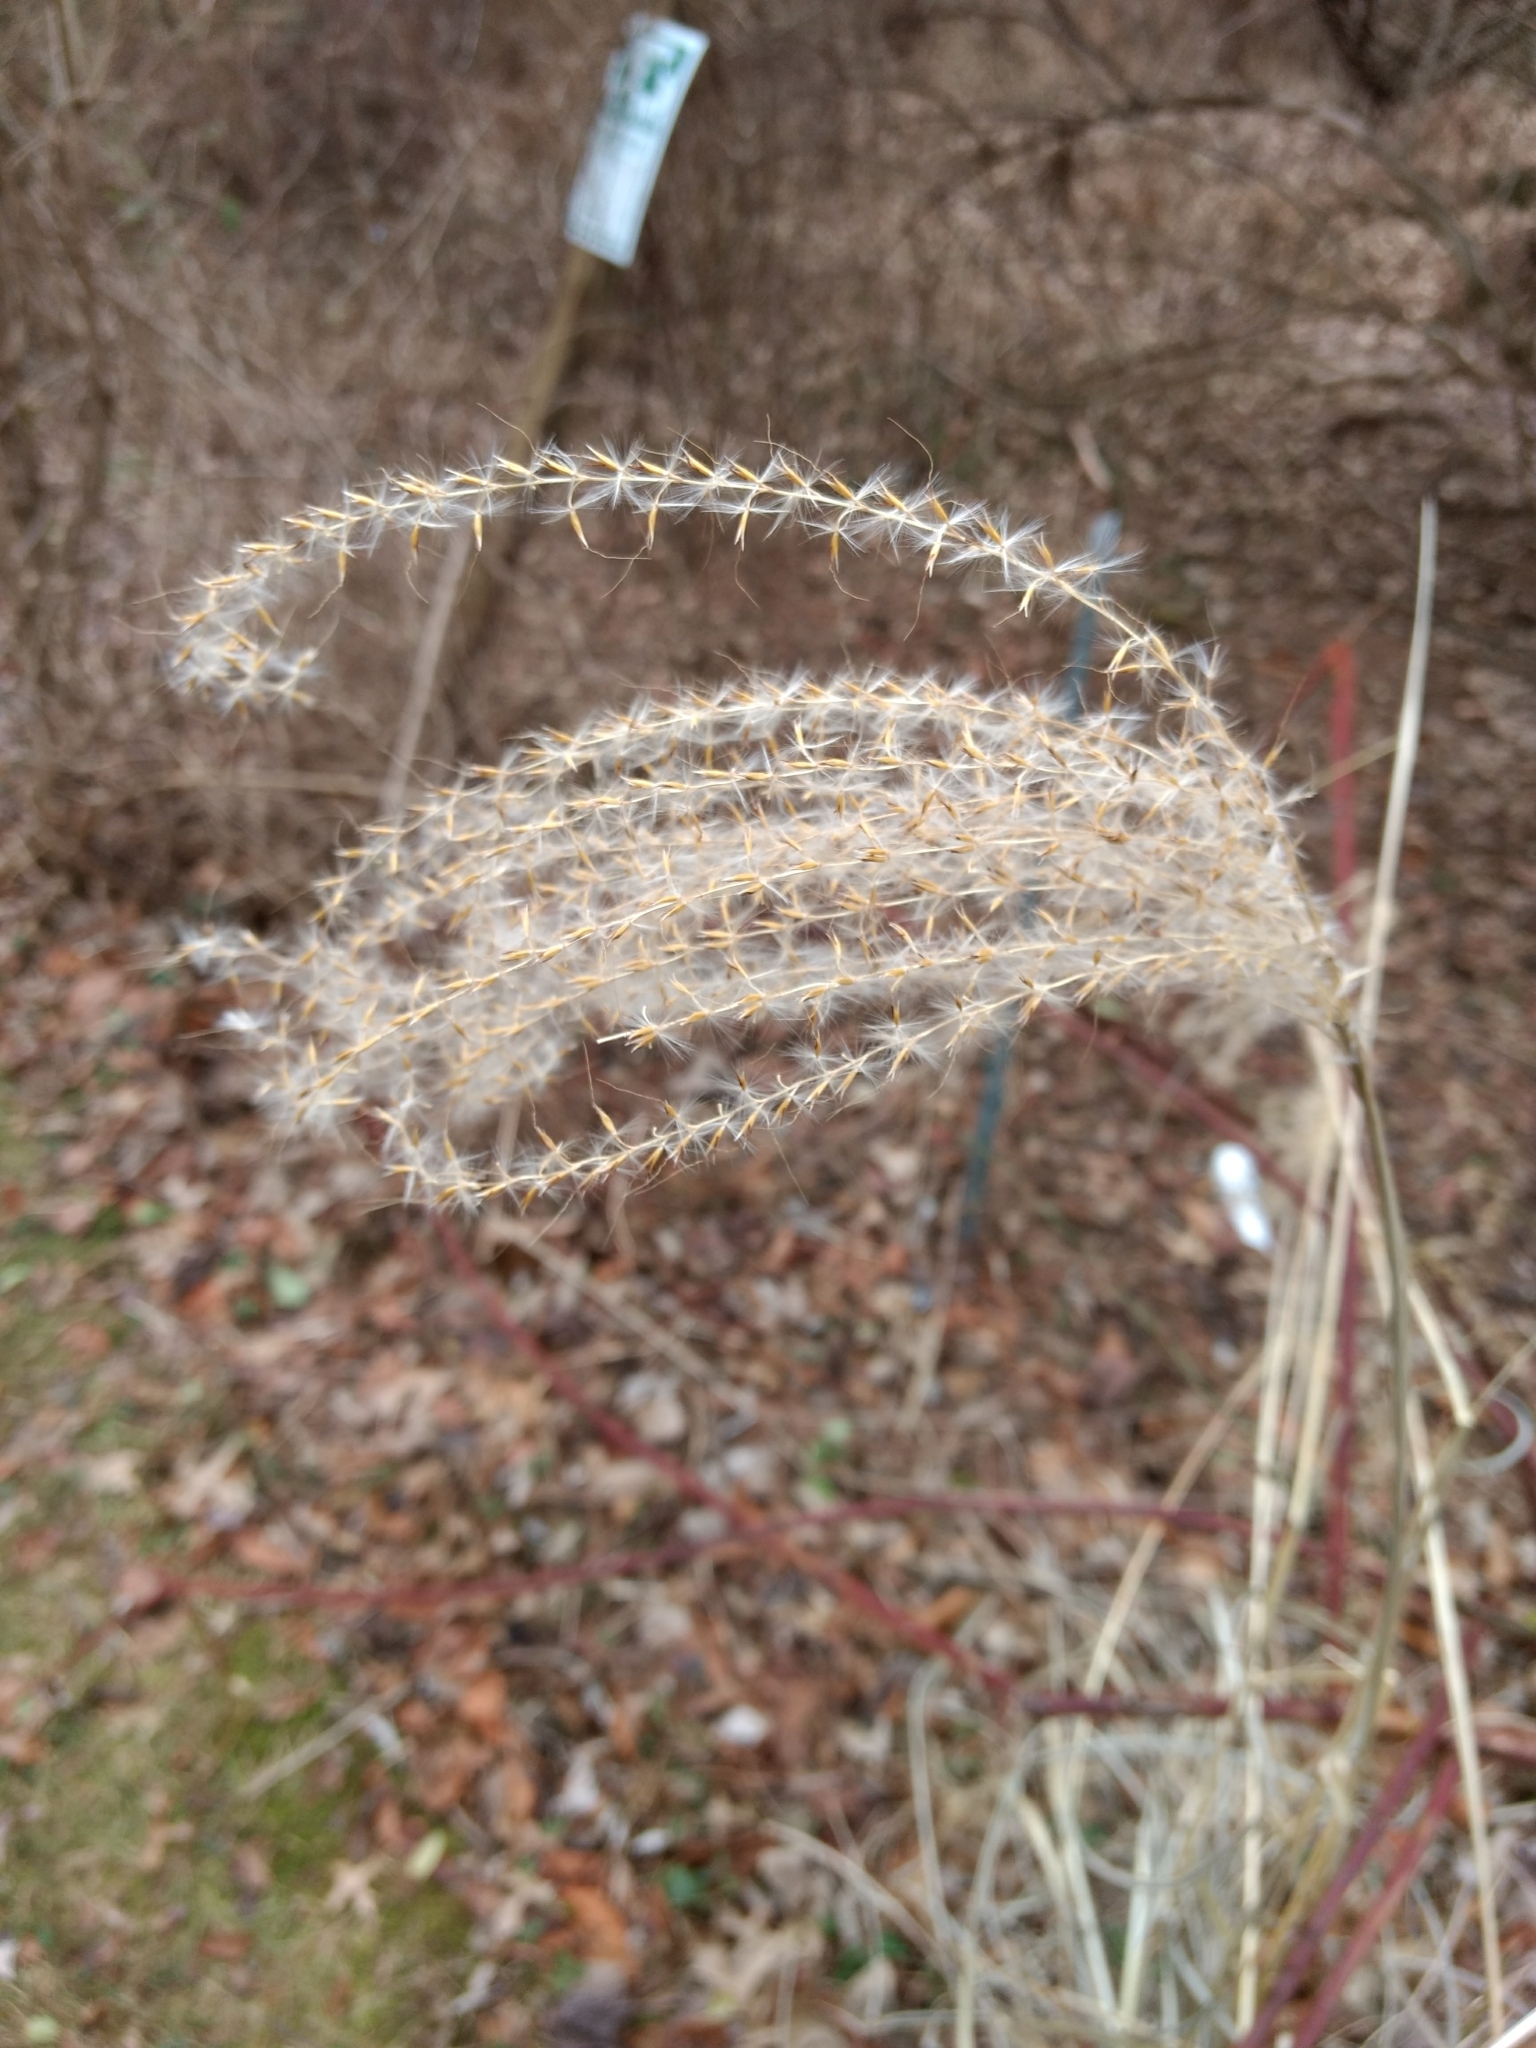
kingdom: Plantae
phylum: Tracheophyta
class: Liliopsida
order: Poales
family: Poaceae
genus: Miscanthus
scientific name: Miscanthus sinensis
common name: Chinese silvergrass
